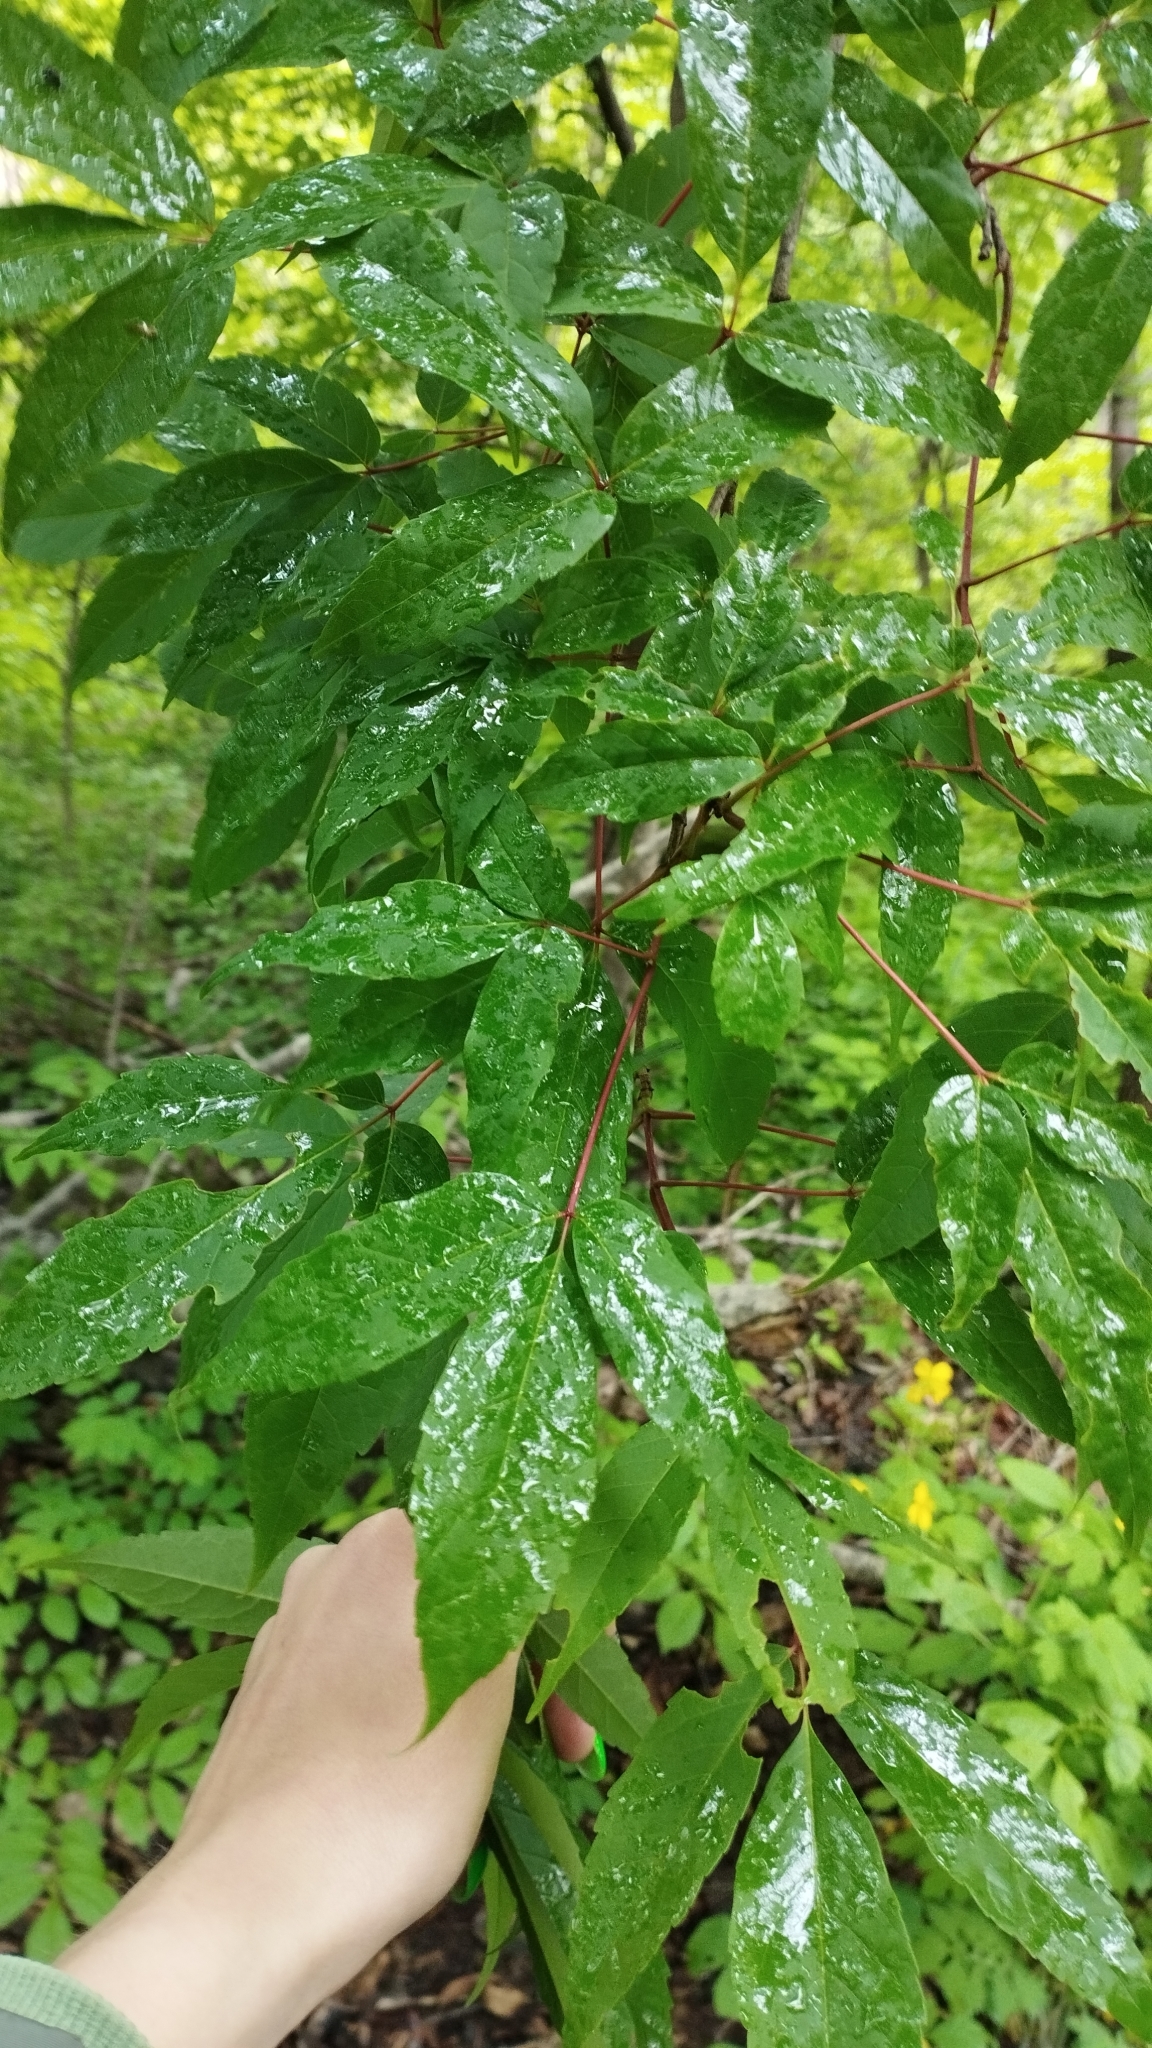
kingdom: Plantae
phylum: Tracheophyta
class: Magnoliopsida
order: Sapindales
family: Sapindaceae
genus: Acer
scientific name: Acer mandshuricum
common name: Manchurian maple
